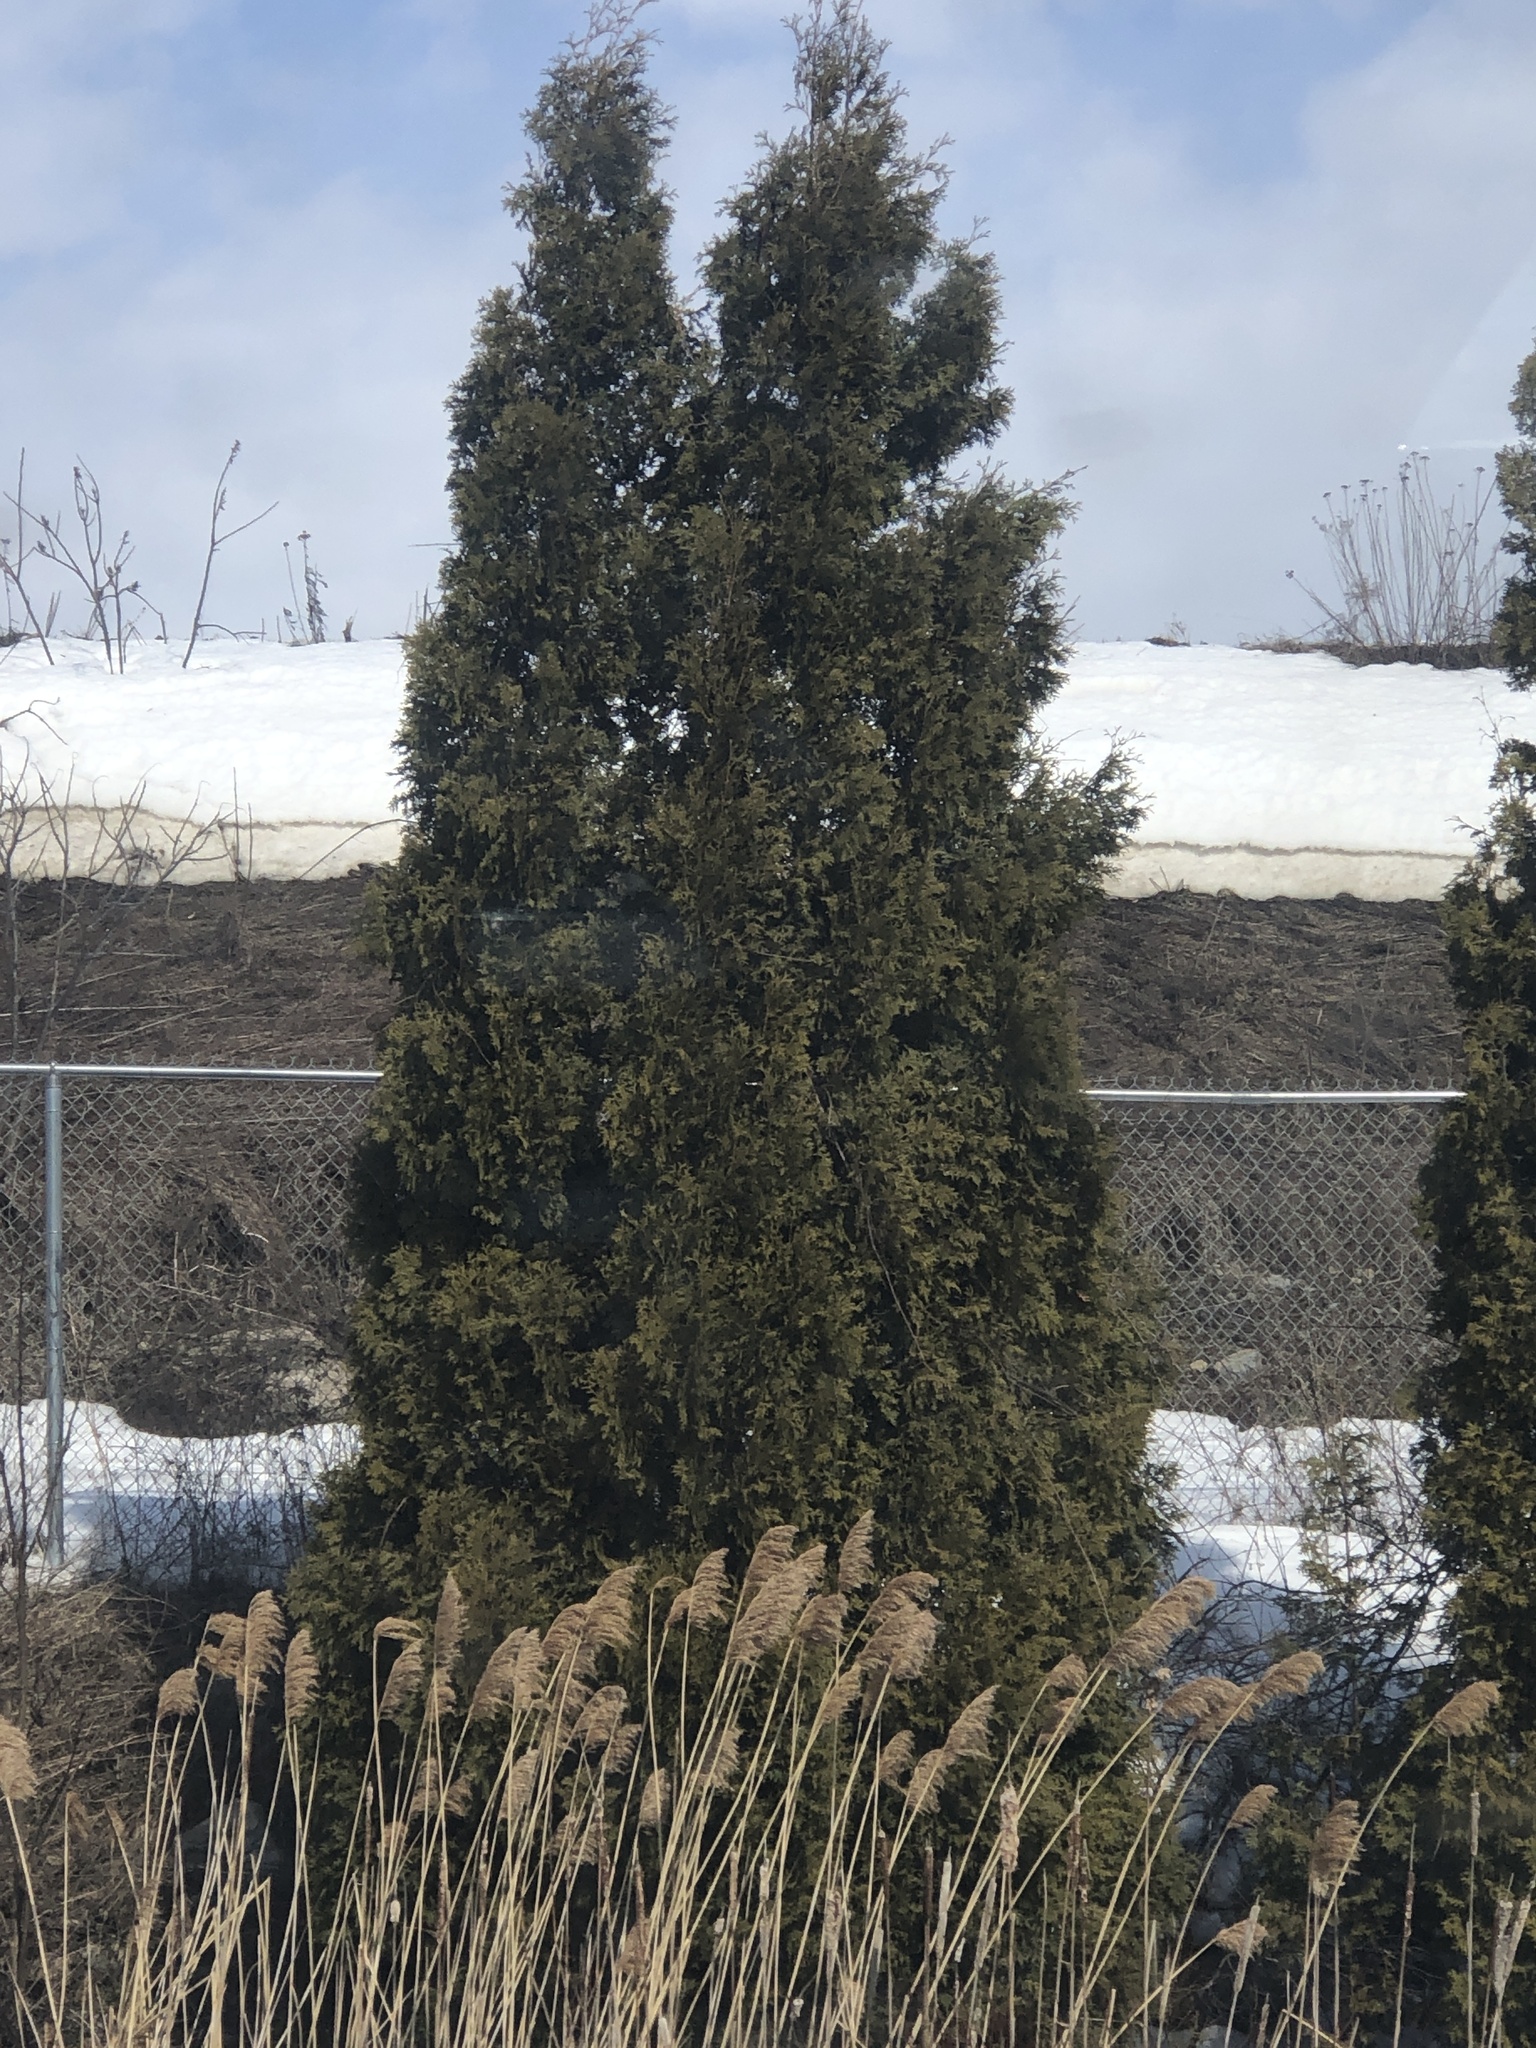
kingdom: Plantae
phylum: Tracheophyta
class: Pinopsida
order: Pinales
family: Cupressaceae
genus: Thuja
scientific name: Thuja occidentalis
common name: Northern white-cedar
